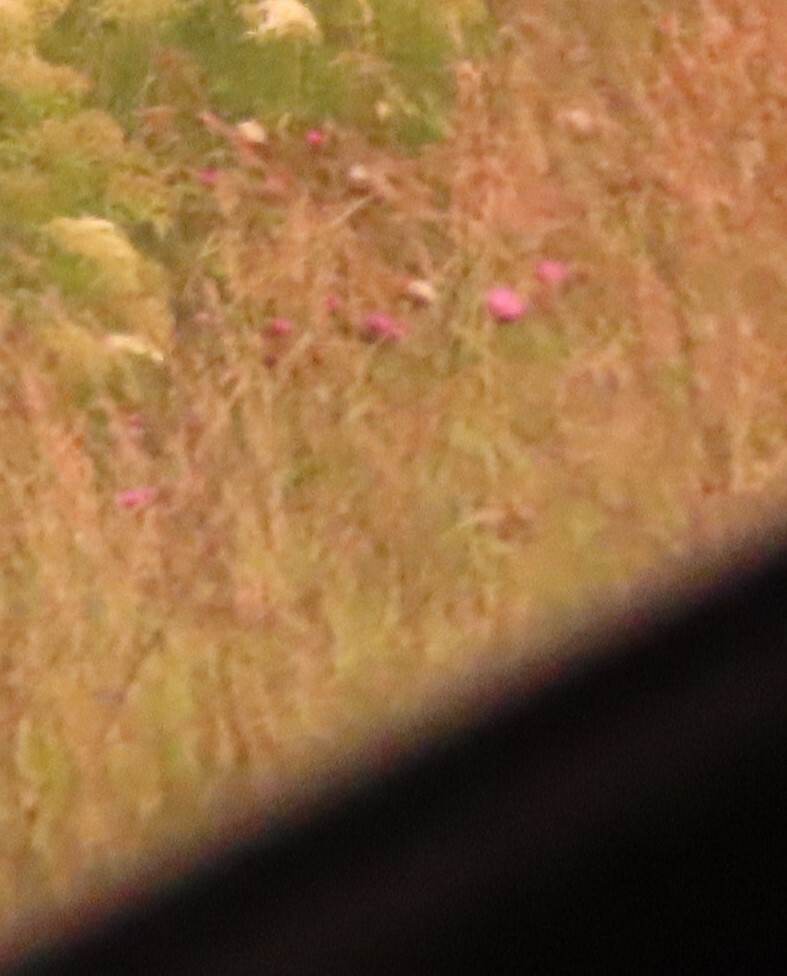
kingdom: Plantae
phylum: Tracheophyta
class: Magnoliopsida
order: Asterales
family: Asteraceae
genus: Carduus
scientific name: Carduus nutans
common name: Musk thistle
